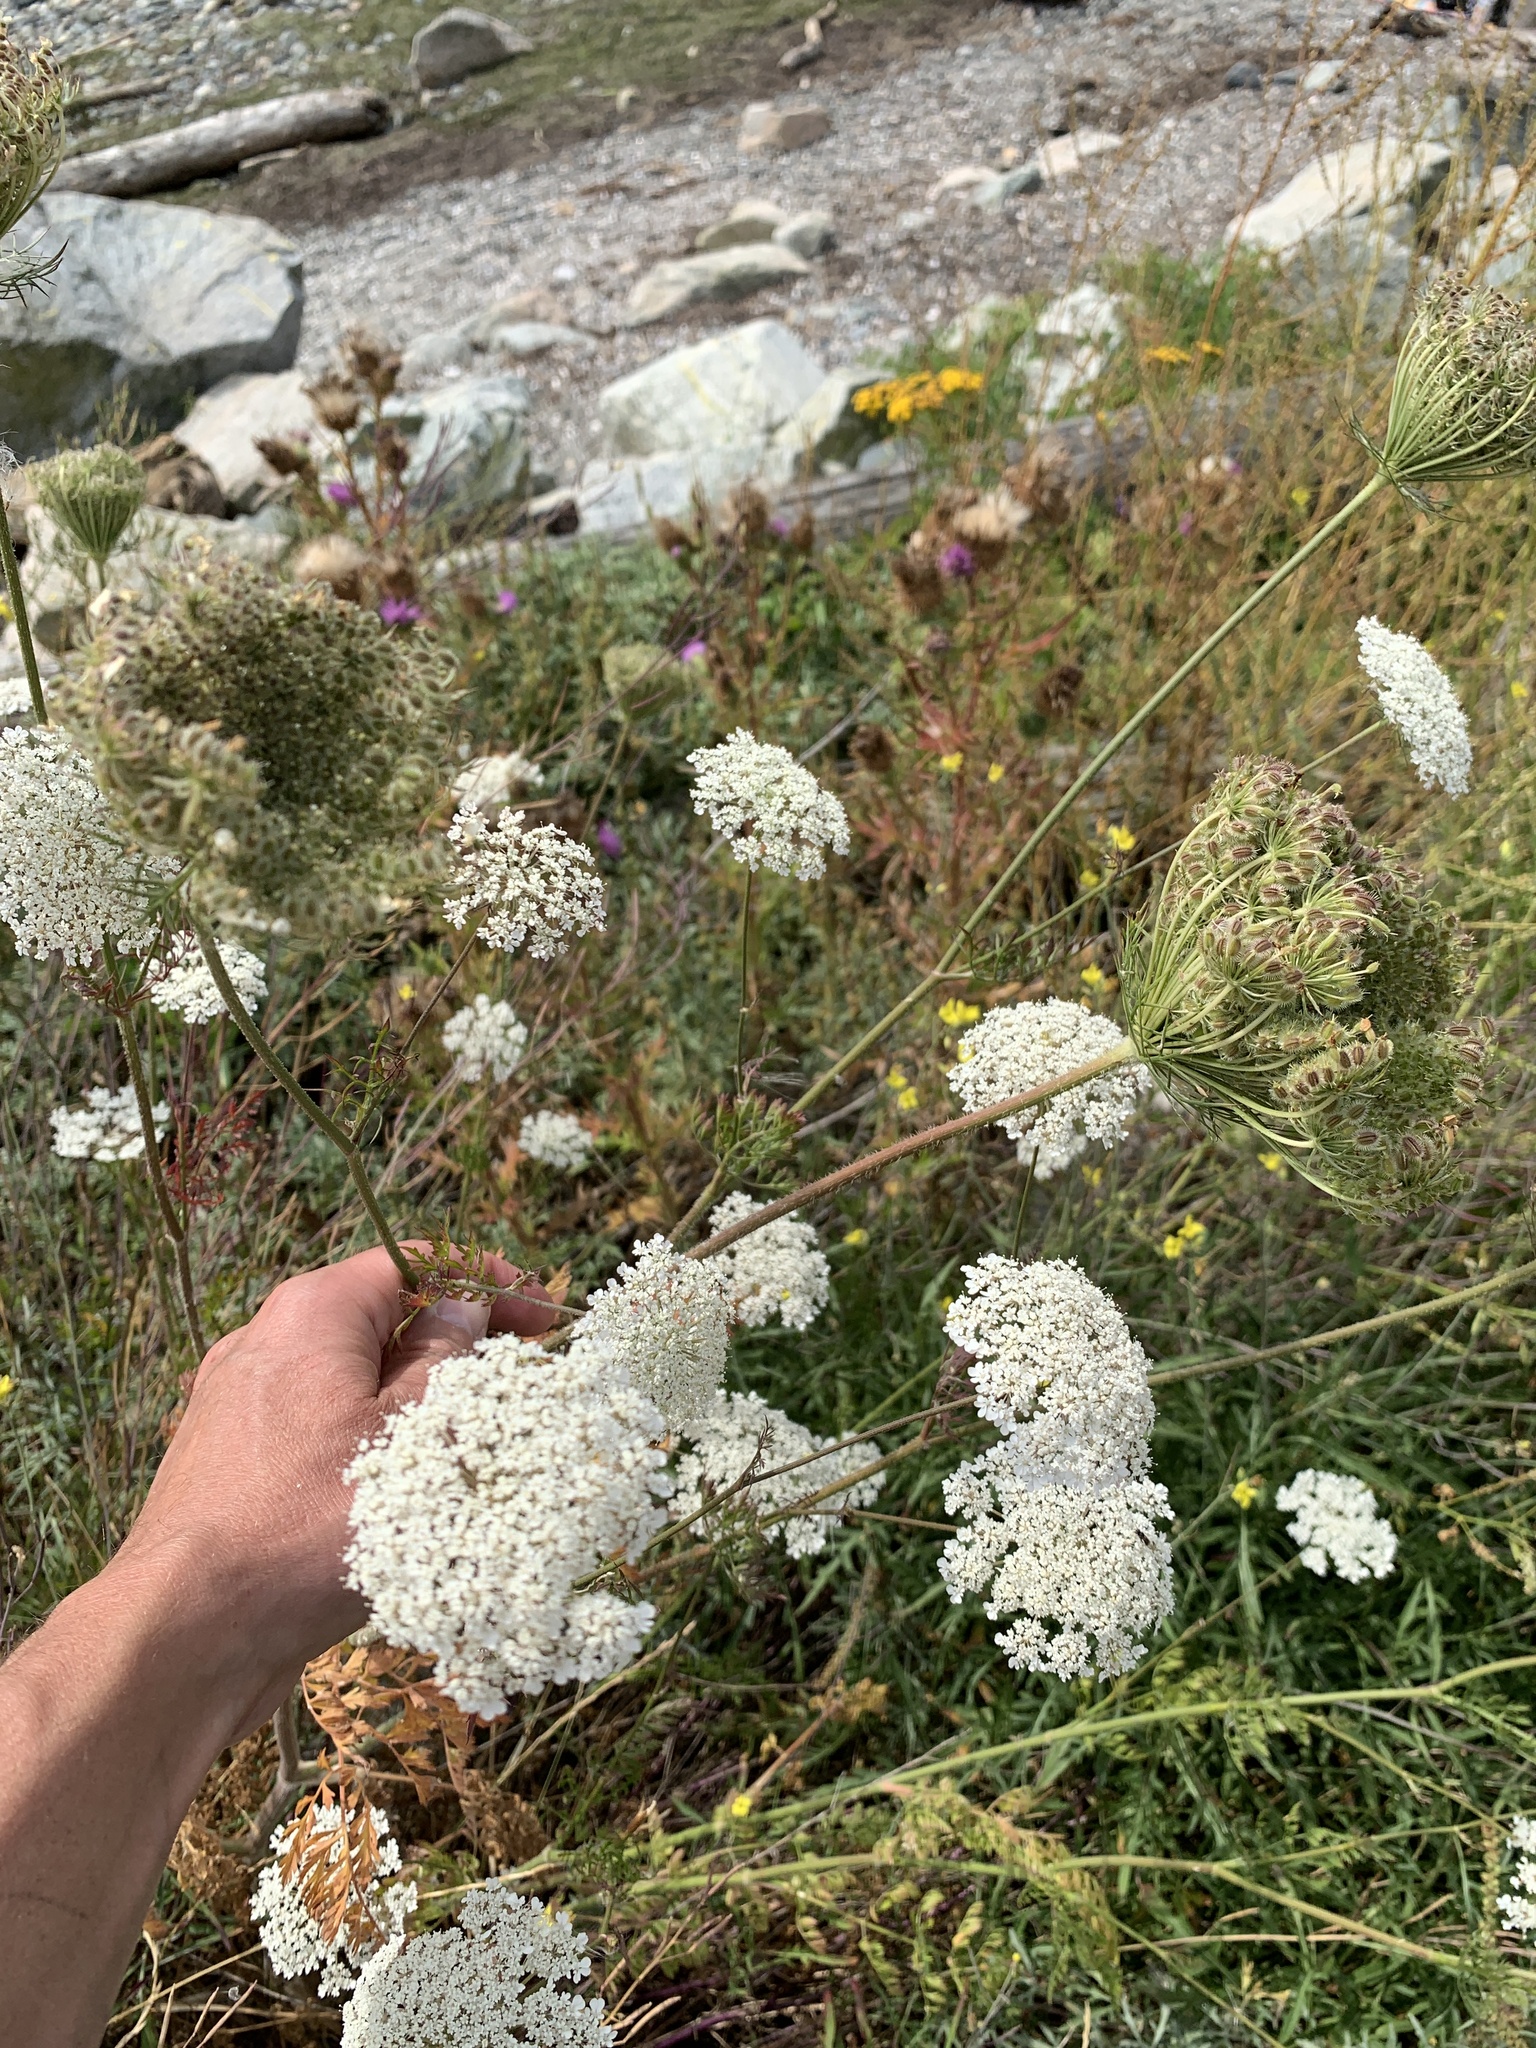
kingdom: Plantae
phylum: Tracheophyta
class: Magnoliopsida
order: Apiales
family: Apiaceae
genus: Daucus
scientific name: Daucus carota
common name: Wild carrot
